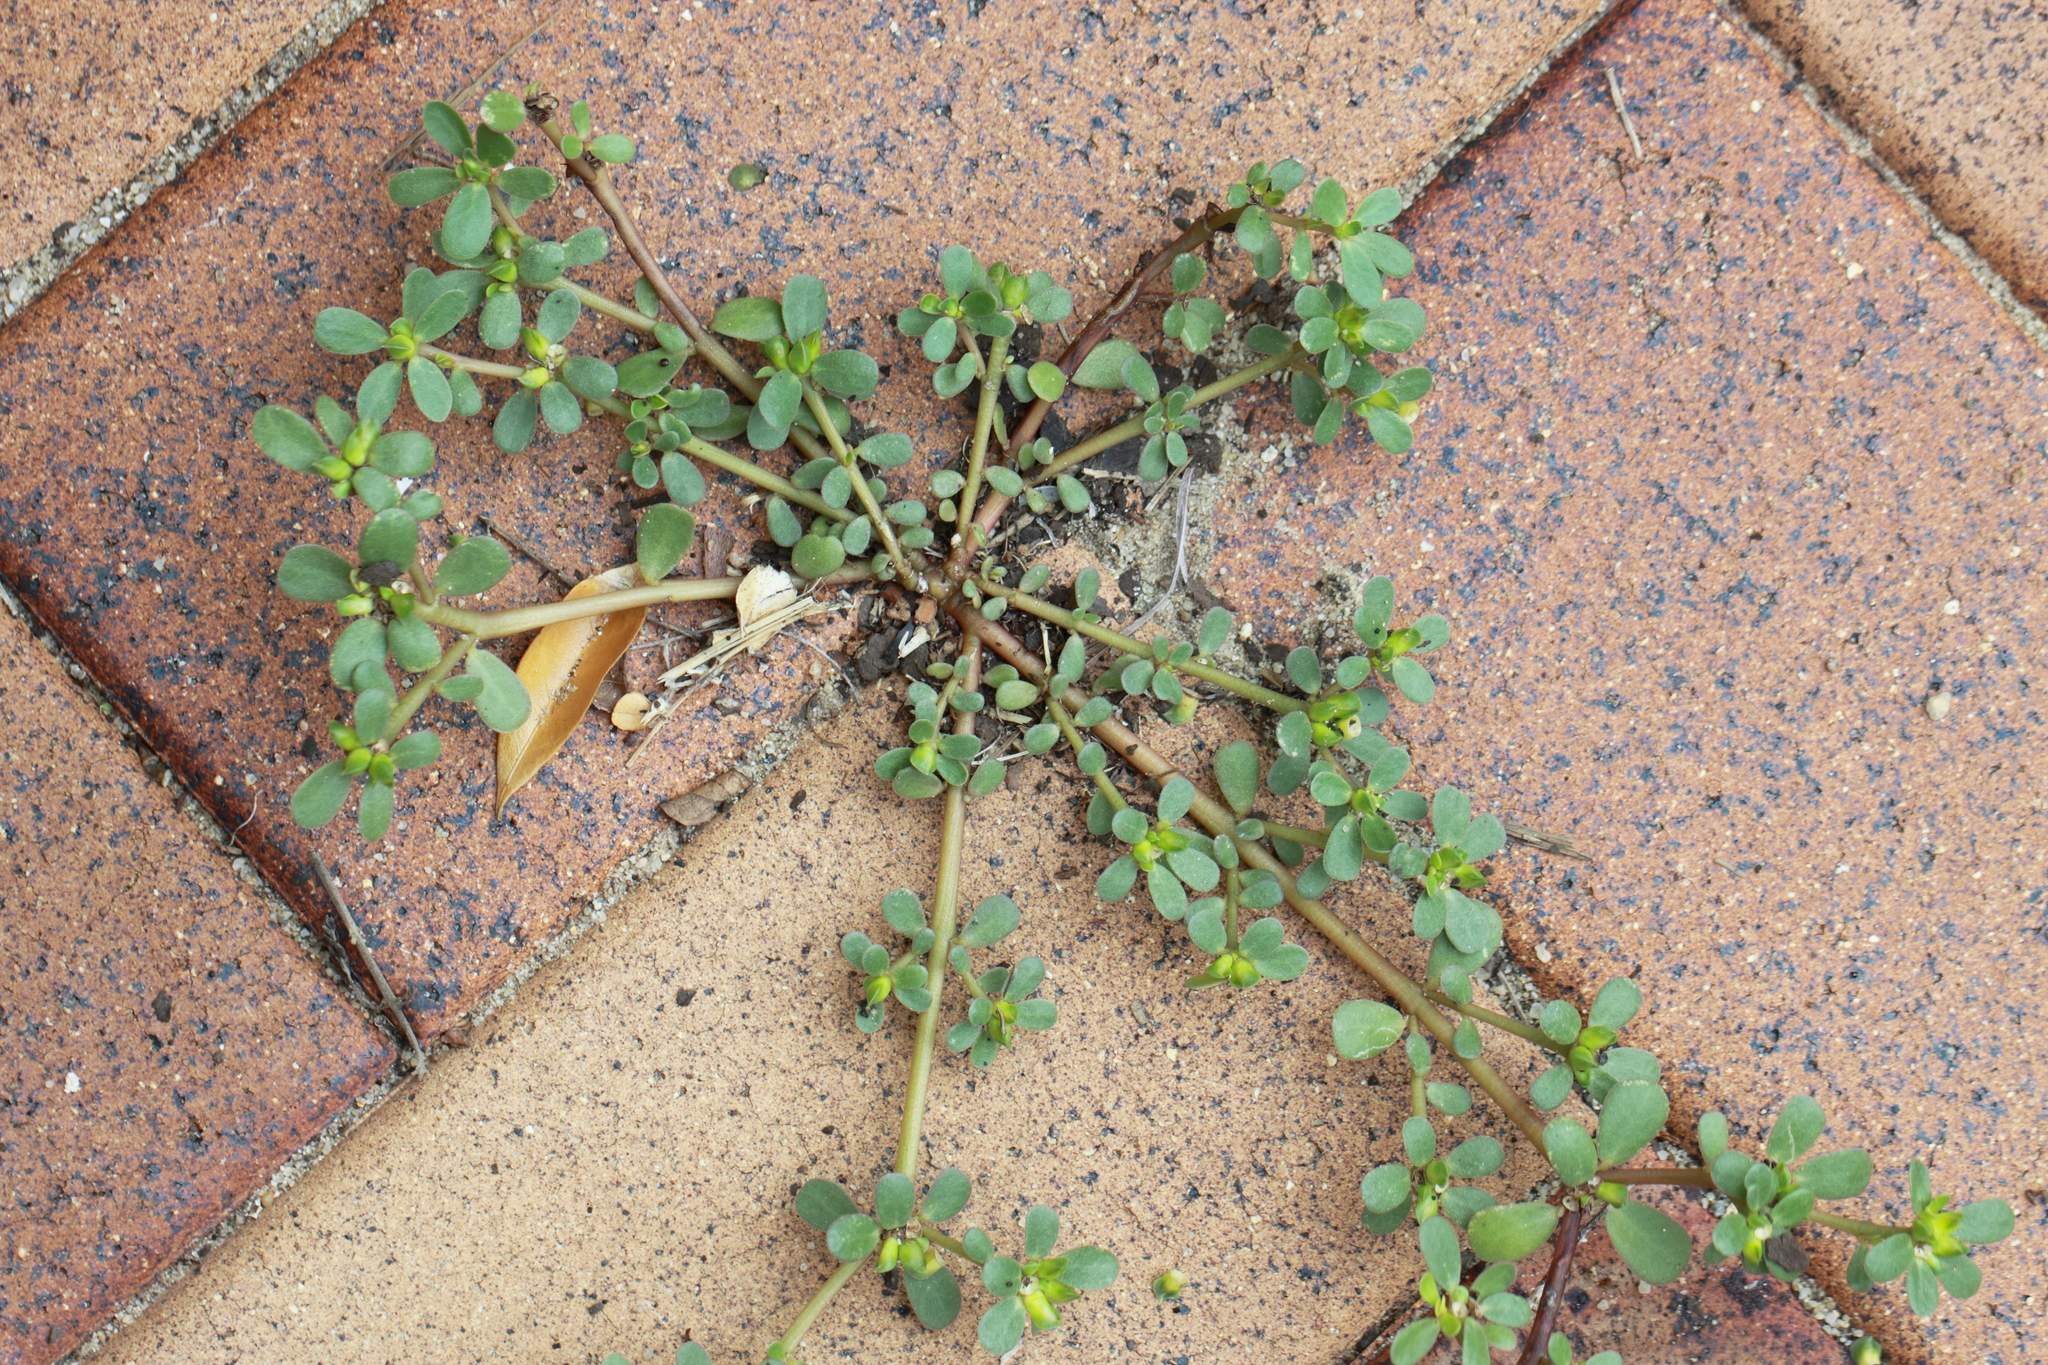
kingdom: Plantae
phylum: Tracheophyta
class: Magnoliopsida
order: Caryophyllales
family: Portulacaceae
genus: Portulaca
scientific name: Portulaca oleracea
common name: Common purslane
